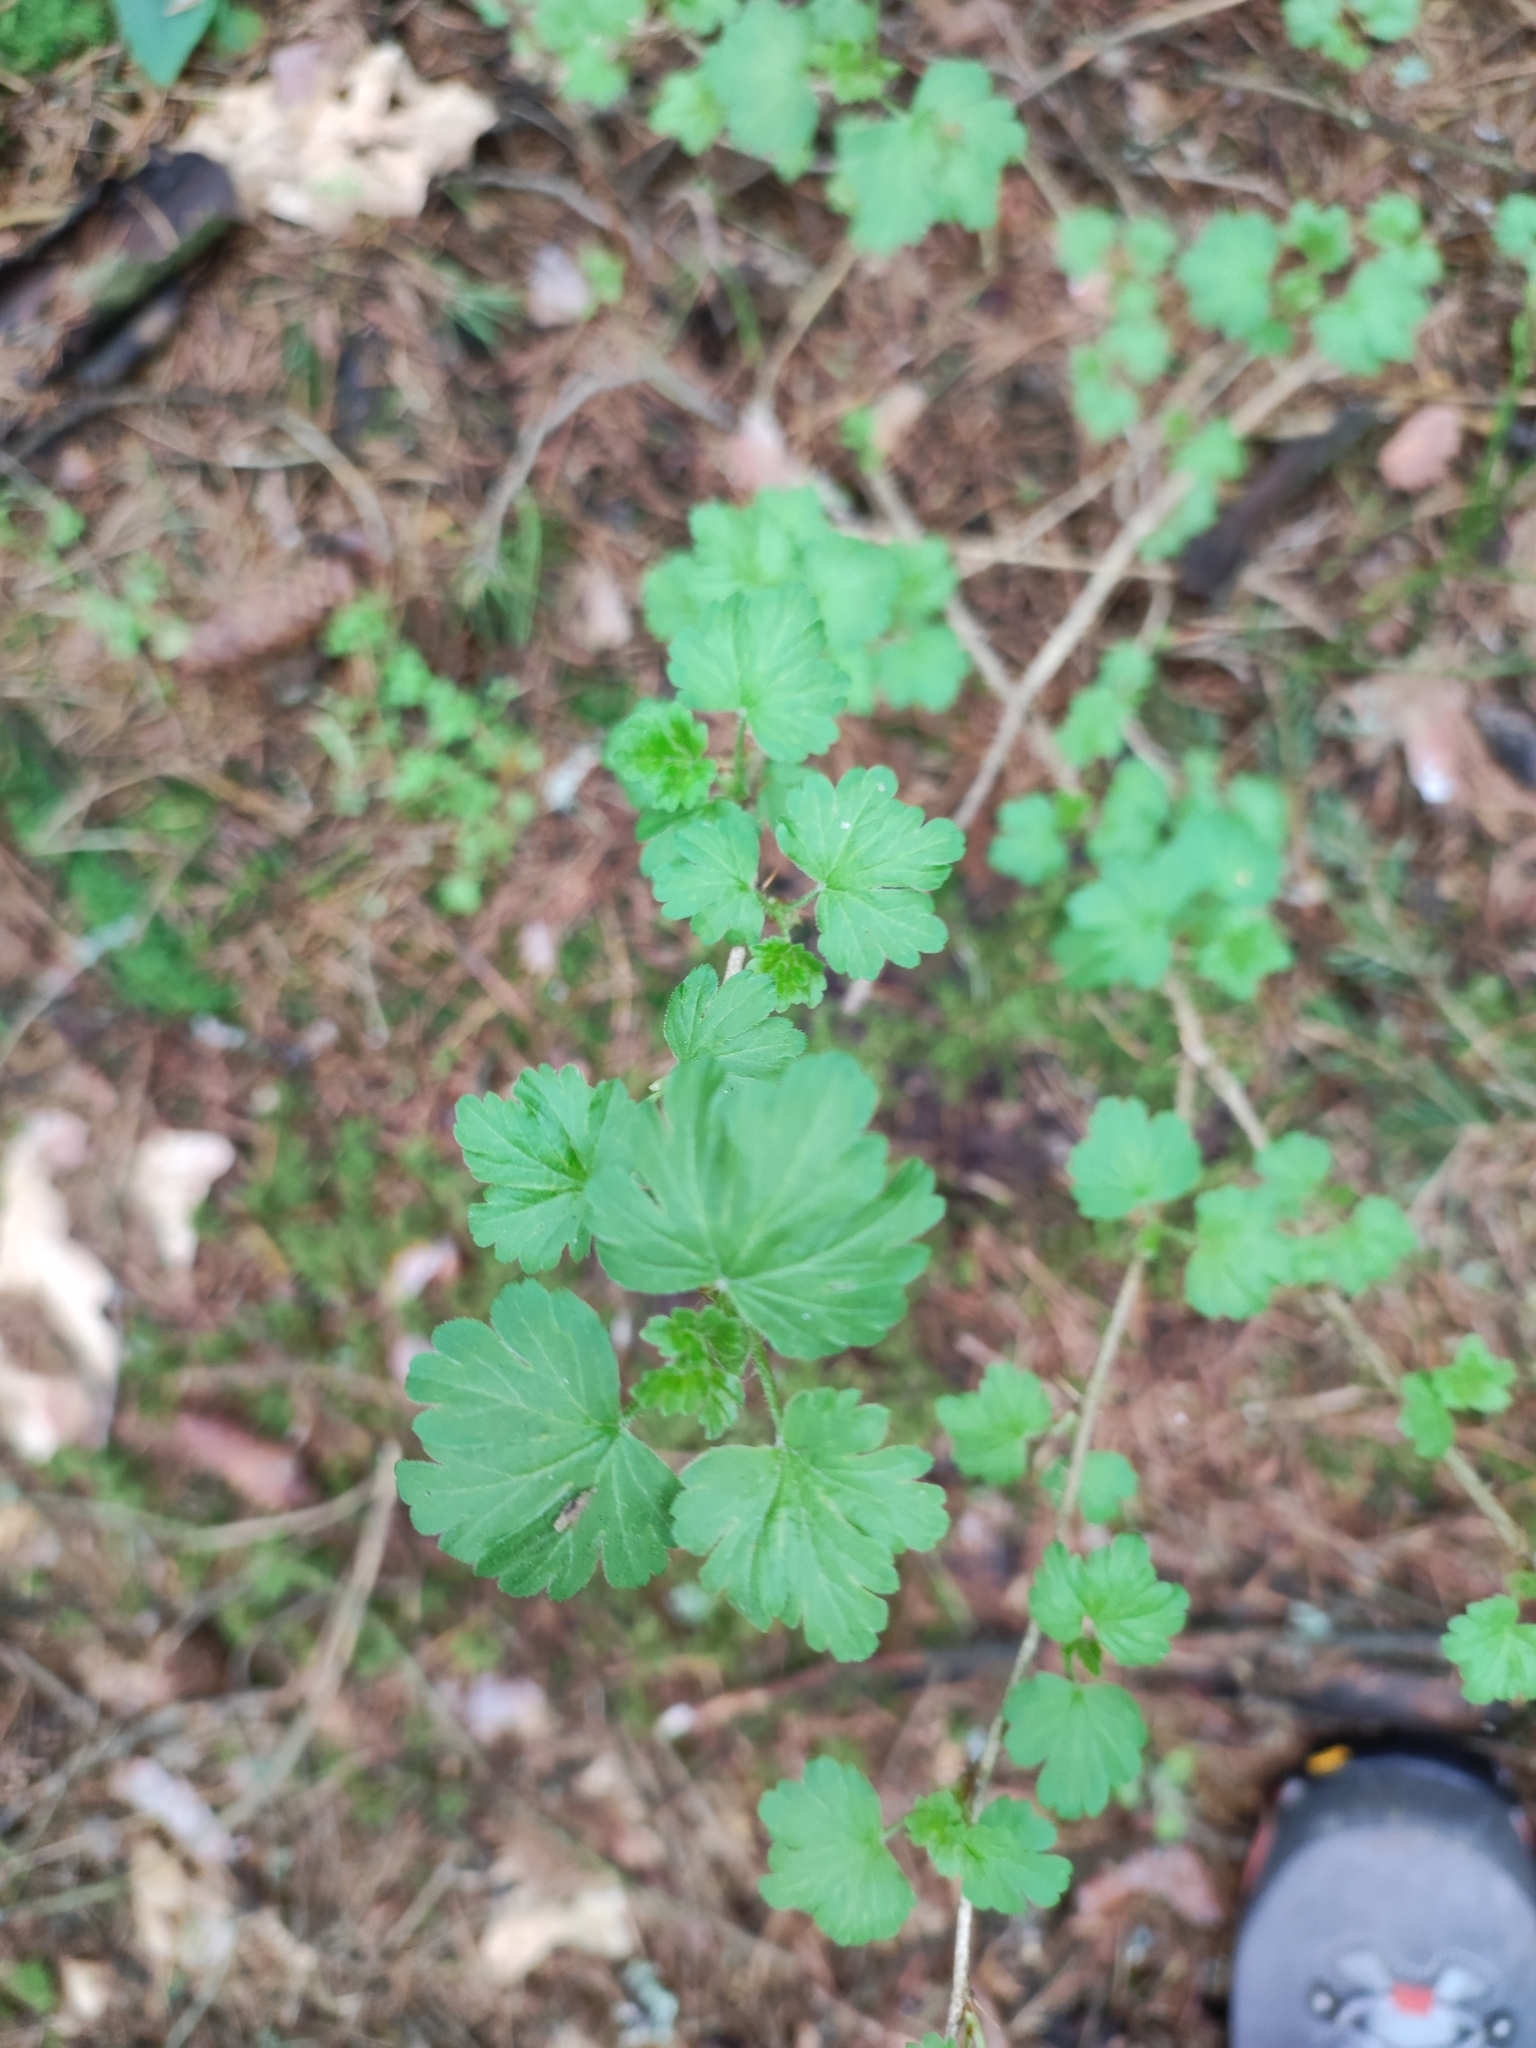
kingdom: Plantae
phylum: Tracheophyta
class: Magnoliopsida
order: Saxifragales
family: Grossulariaceae
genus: Ribes
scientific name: Ribes uva-crispa
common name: Gooseberry
